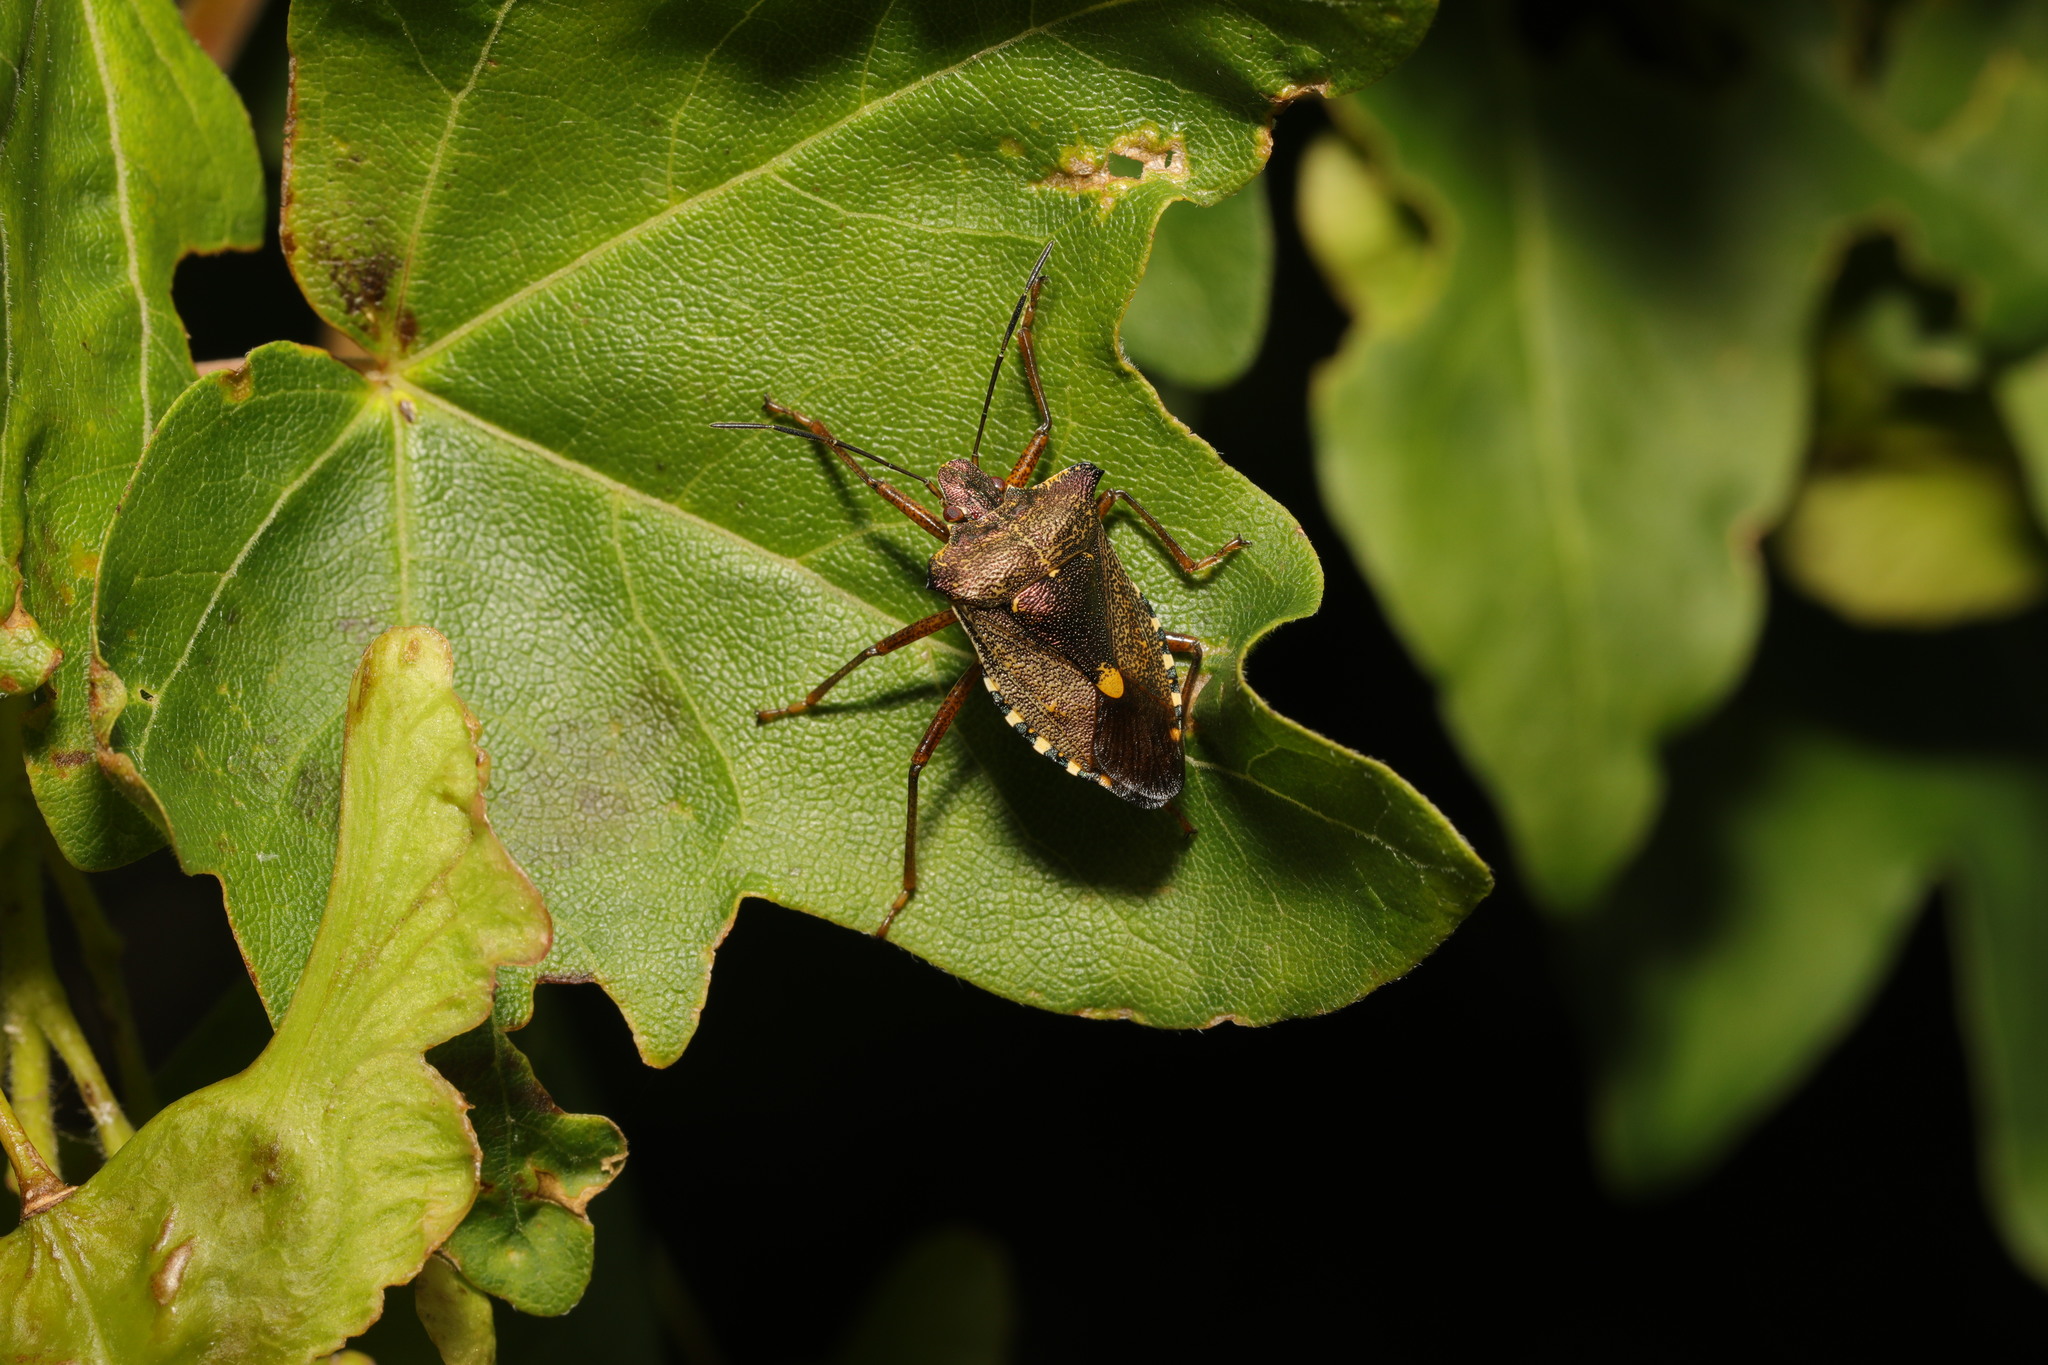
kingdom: Animalia
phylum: Arthropoda
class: Insecta
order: Hemiptera
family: Pentatomidae
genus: Pentatoma
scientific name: Pentatoma rufipes
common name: Forest bug
